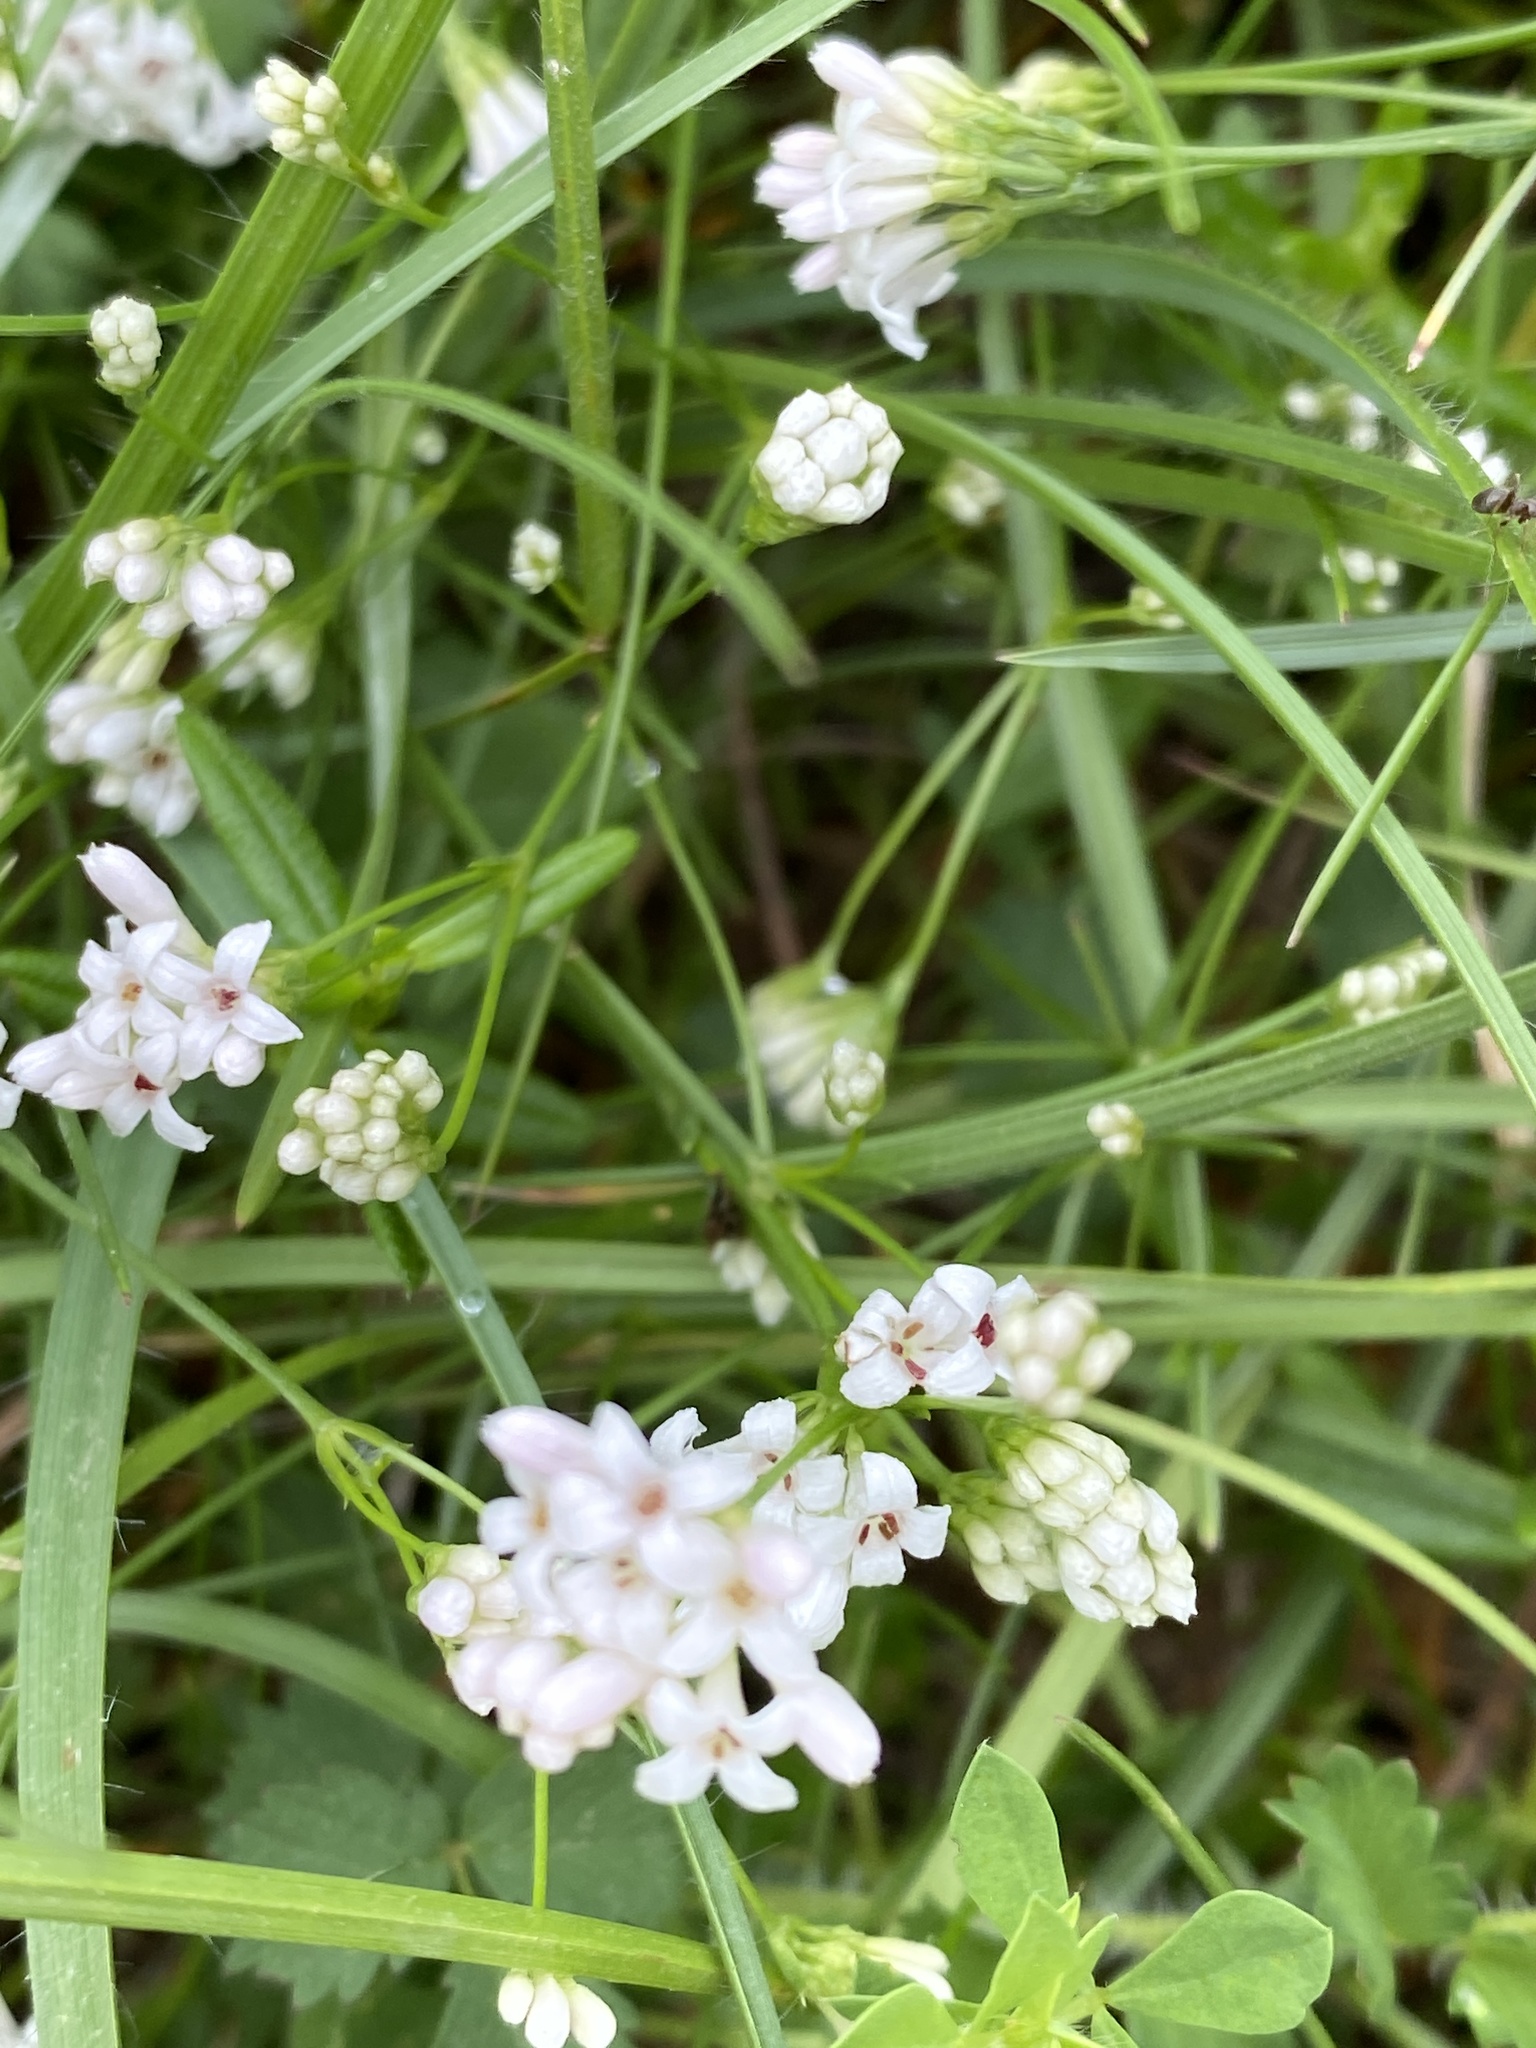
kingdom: Plantae
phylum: Tracheophyta
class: Magnoliopsida
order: Gentianales
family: Rubiaceae
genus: Cynanchica
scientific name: Cynanchica pyrenaica
